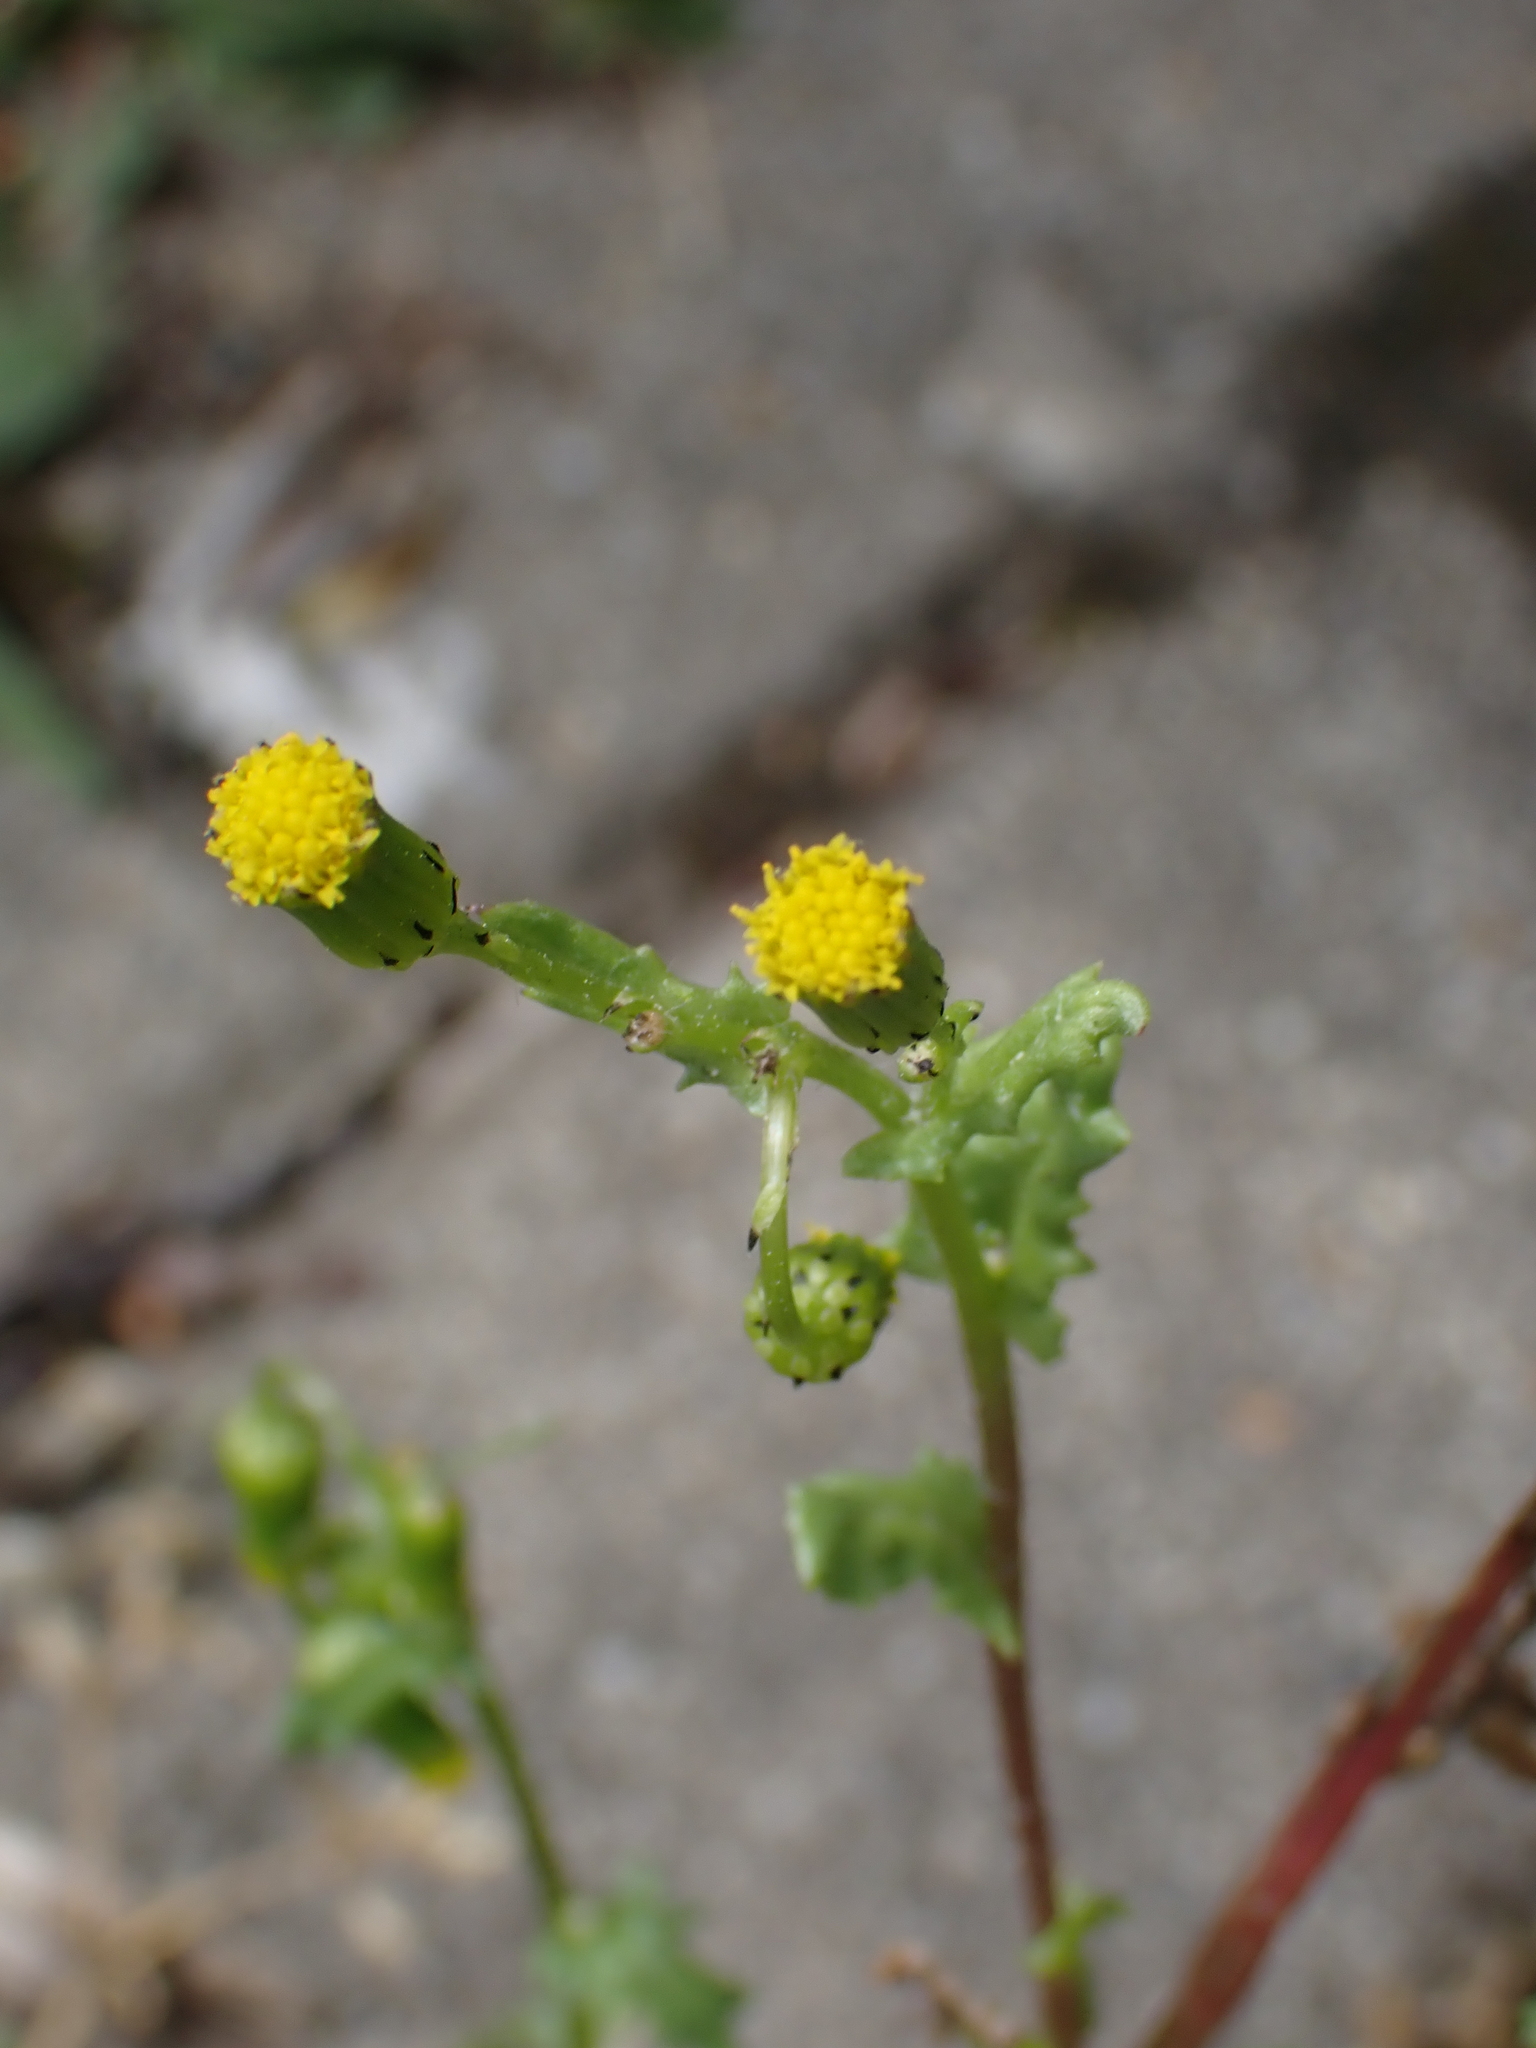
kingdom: Plantae
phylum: Tracheophyta
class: Magnoliopsida
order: Asterales
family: Asteraceae
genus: Senecio
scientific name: Senecio vulgaris
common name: Old-man-in-the-spring
